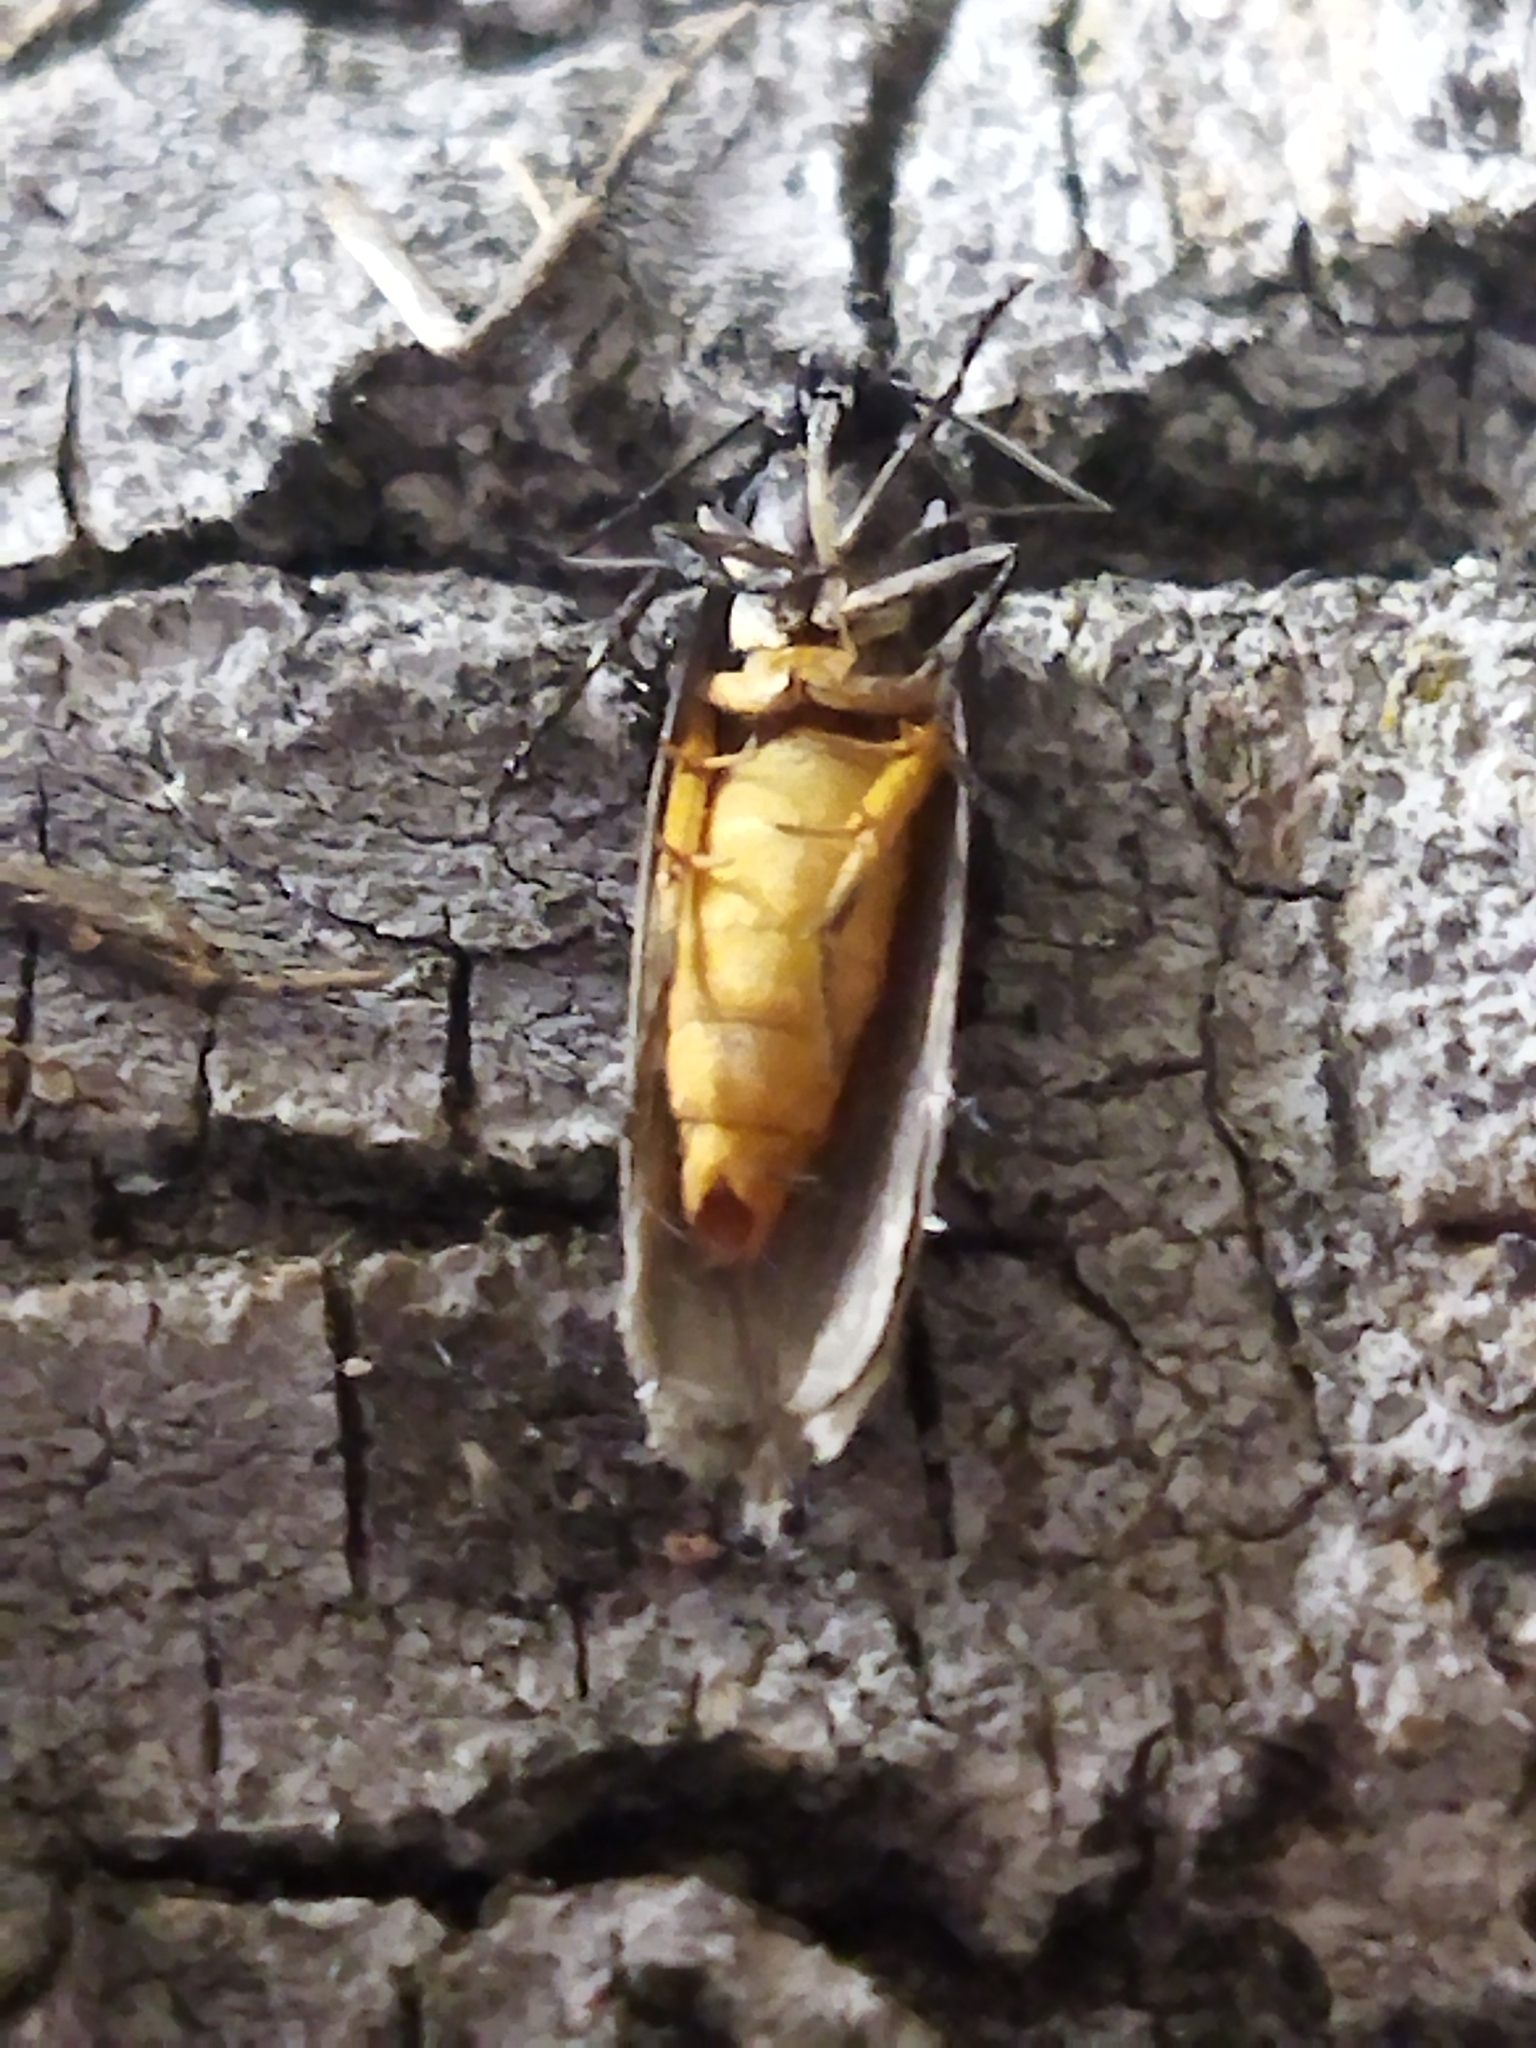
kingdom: Animalia
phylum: Arthropoda
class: Insecta
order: Lepidoptera
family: Ethmiidae
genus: Ethmia
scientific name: Ethmia bipunctella
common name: Bordered ermel
